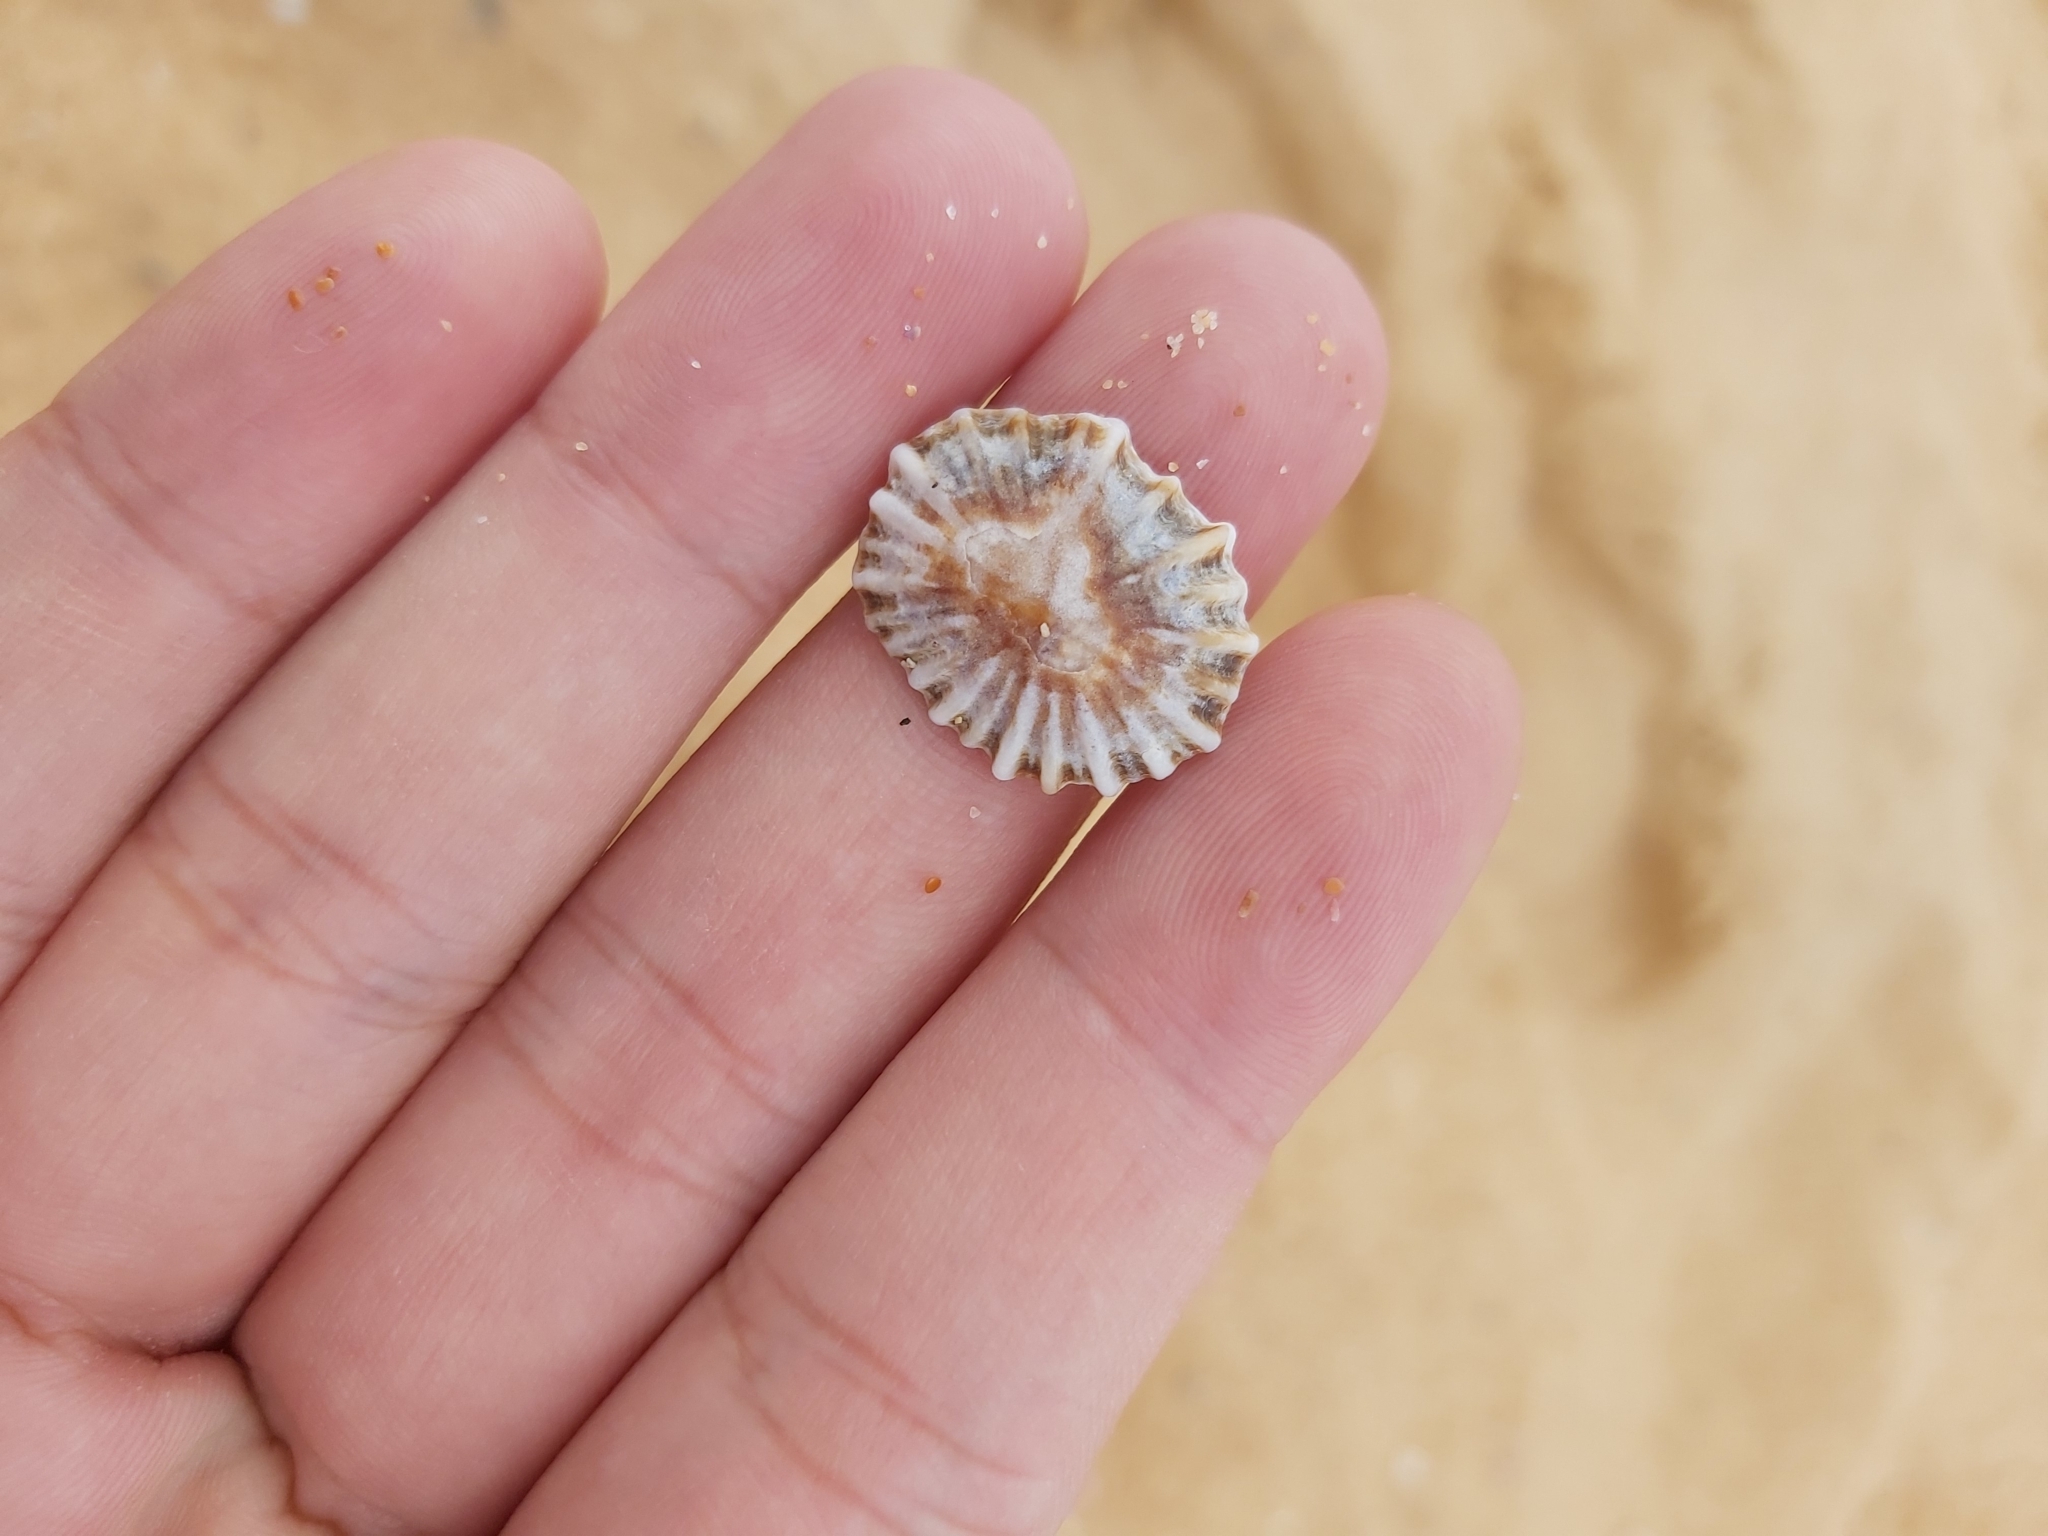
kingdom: Animalia
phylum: Mollusca
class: Gastropoda
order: Siphonariida
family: Siphonariidae
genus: Siphonaria
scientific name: Siphonaria denticulata
